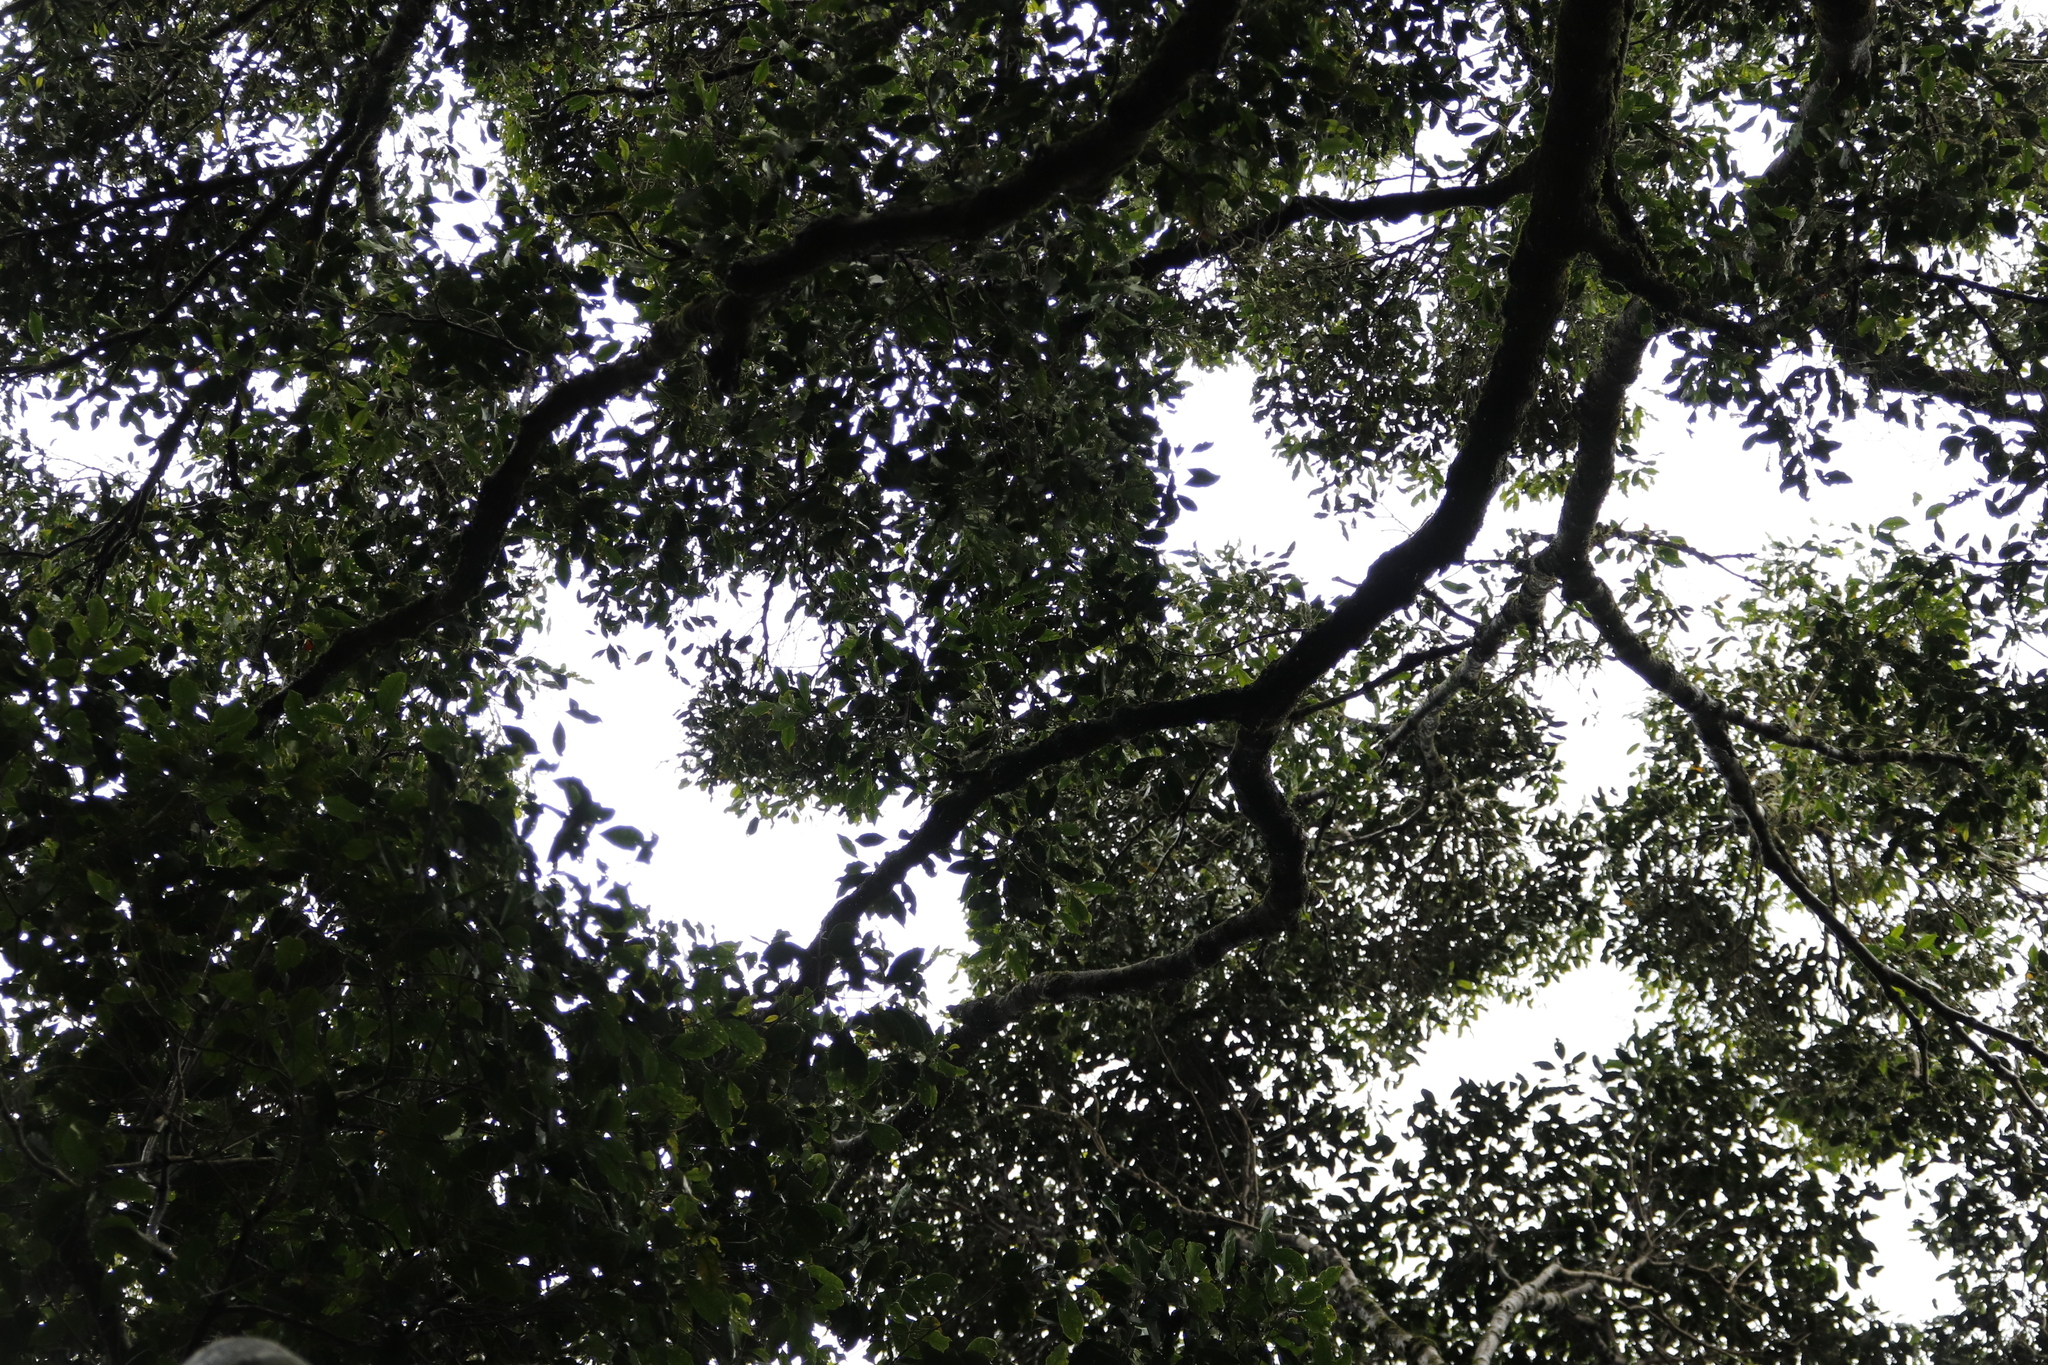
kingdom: Plantae
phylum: Tracheophyta
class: Magnoliopsida
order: Lamiales
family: Oleaceae
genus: Olea
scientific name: Olea capensis
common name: Black ironwood
